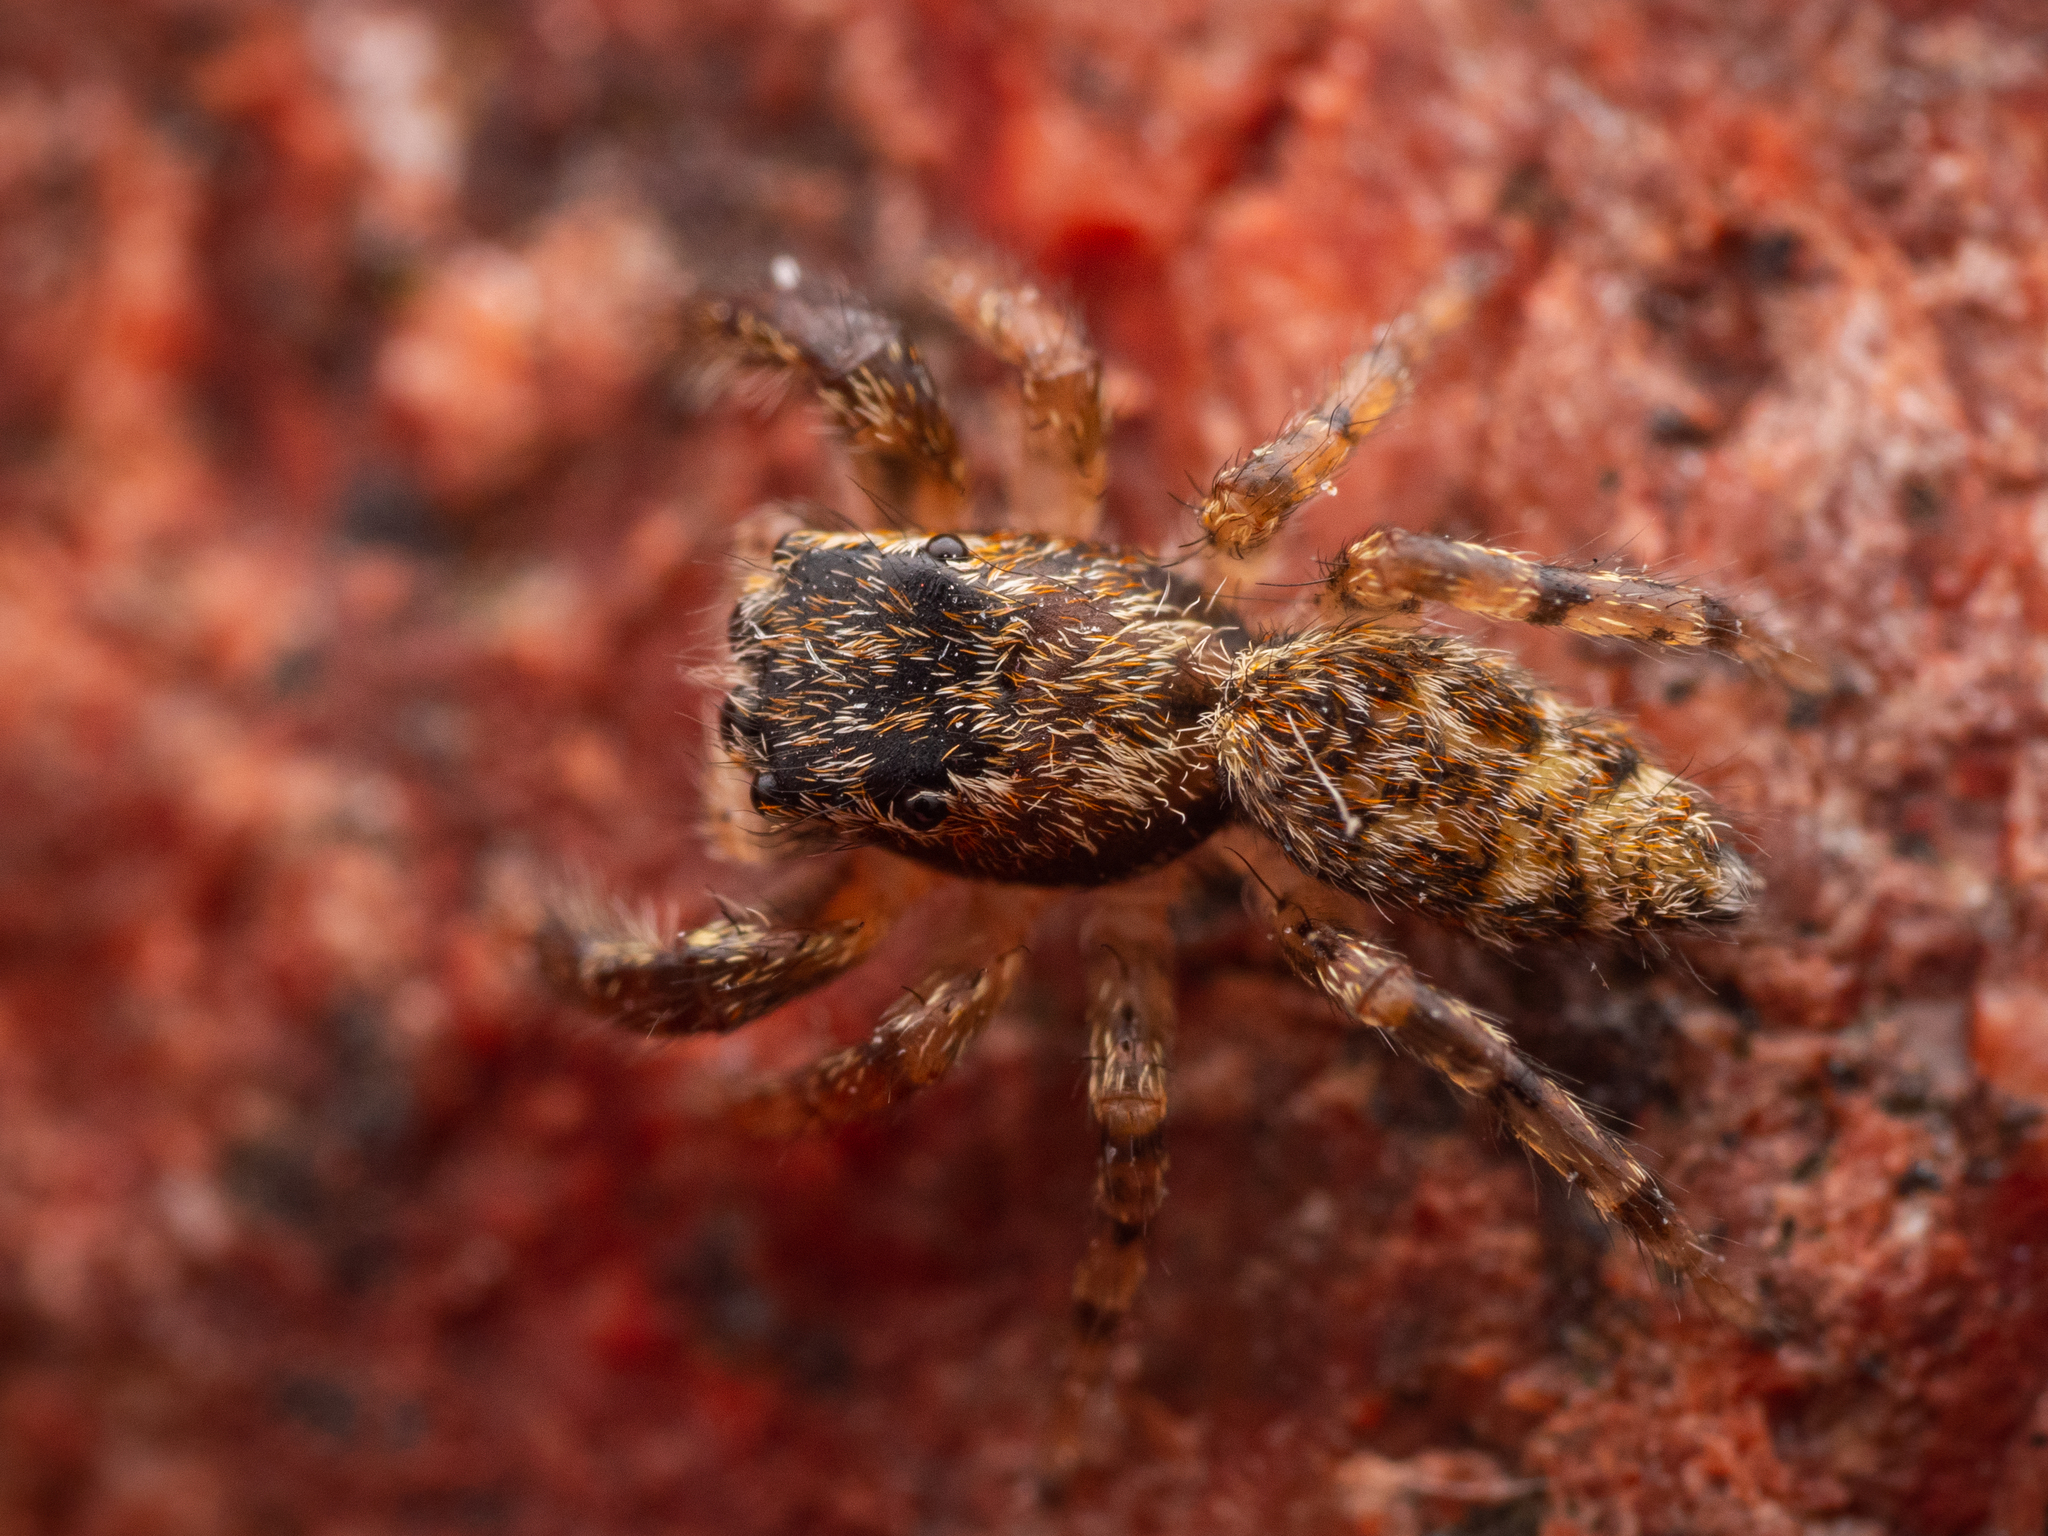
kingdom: Animalia
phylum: Arthropoda
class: Arachnida
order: Araneae
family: Salticidae
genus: Marpissa
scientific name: Marpissa muscosa
